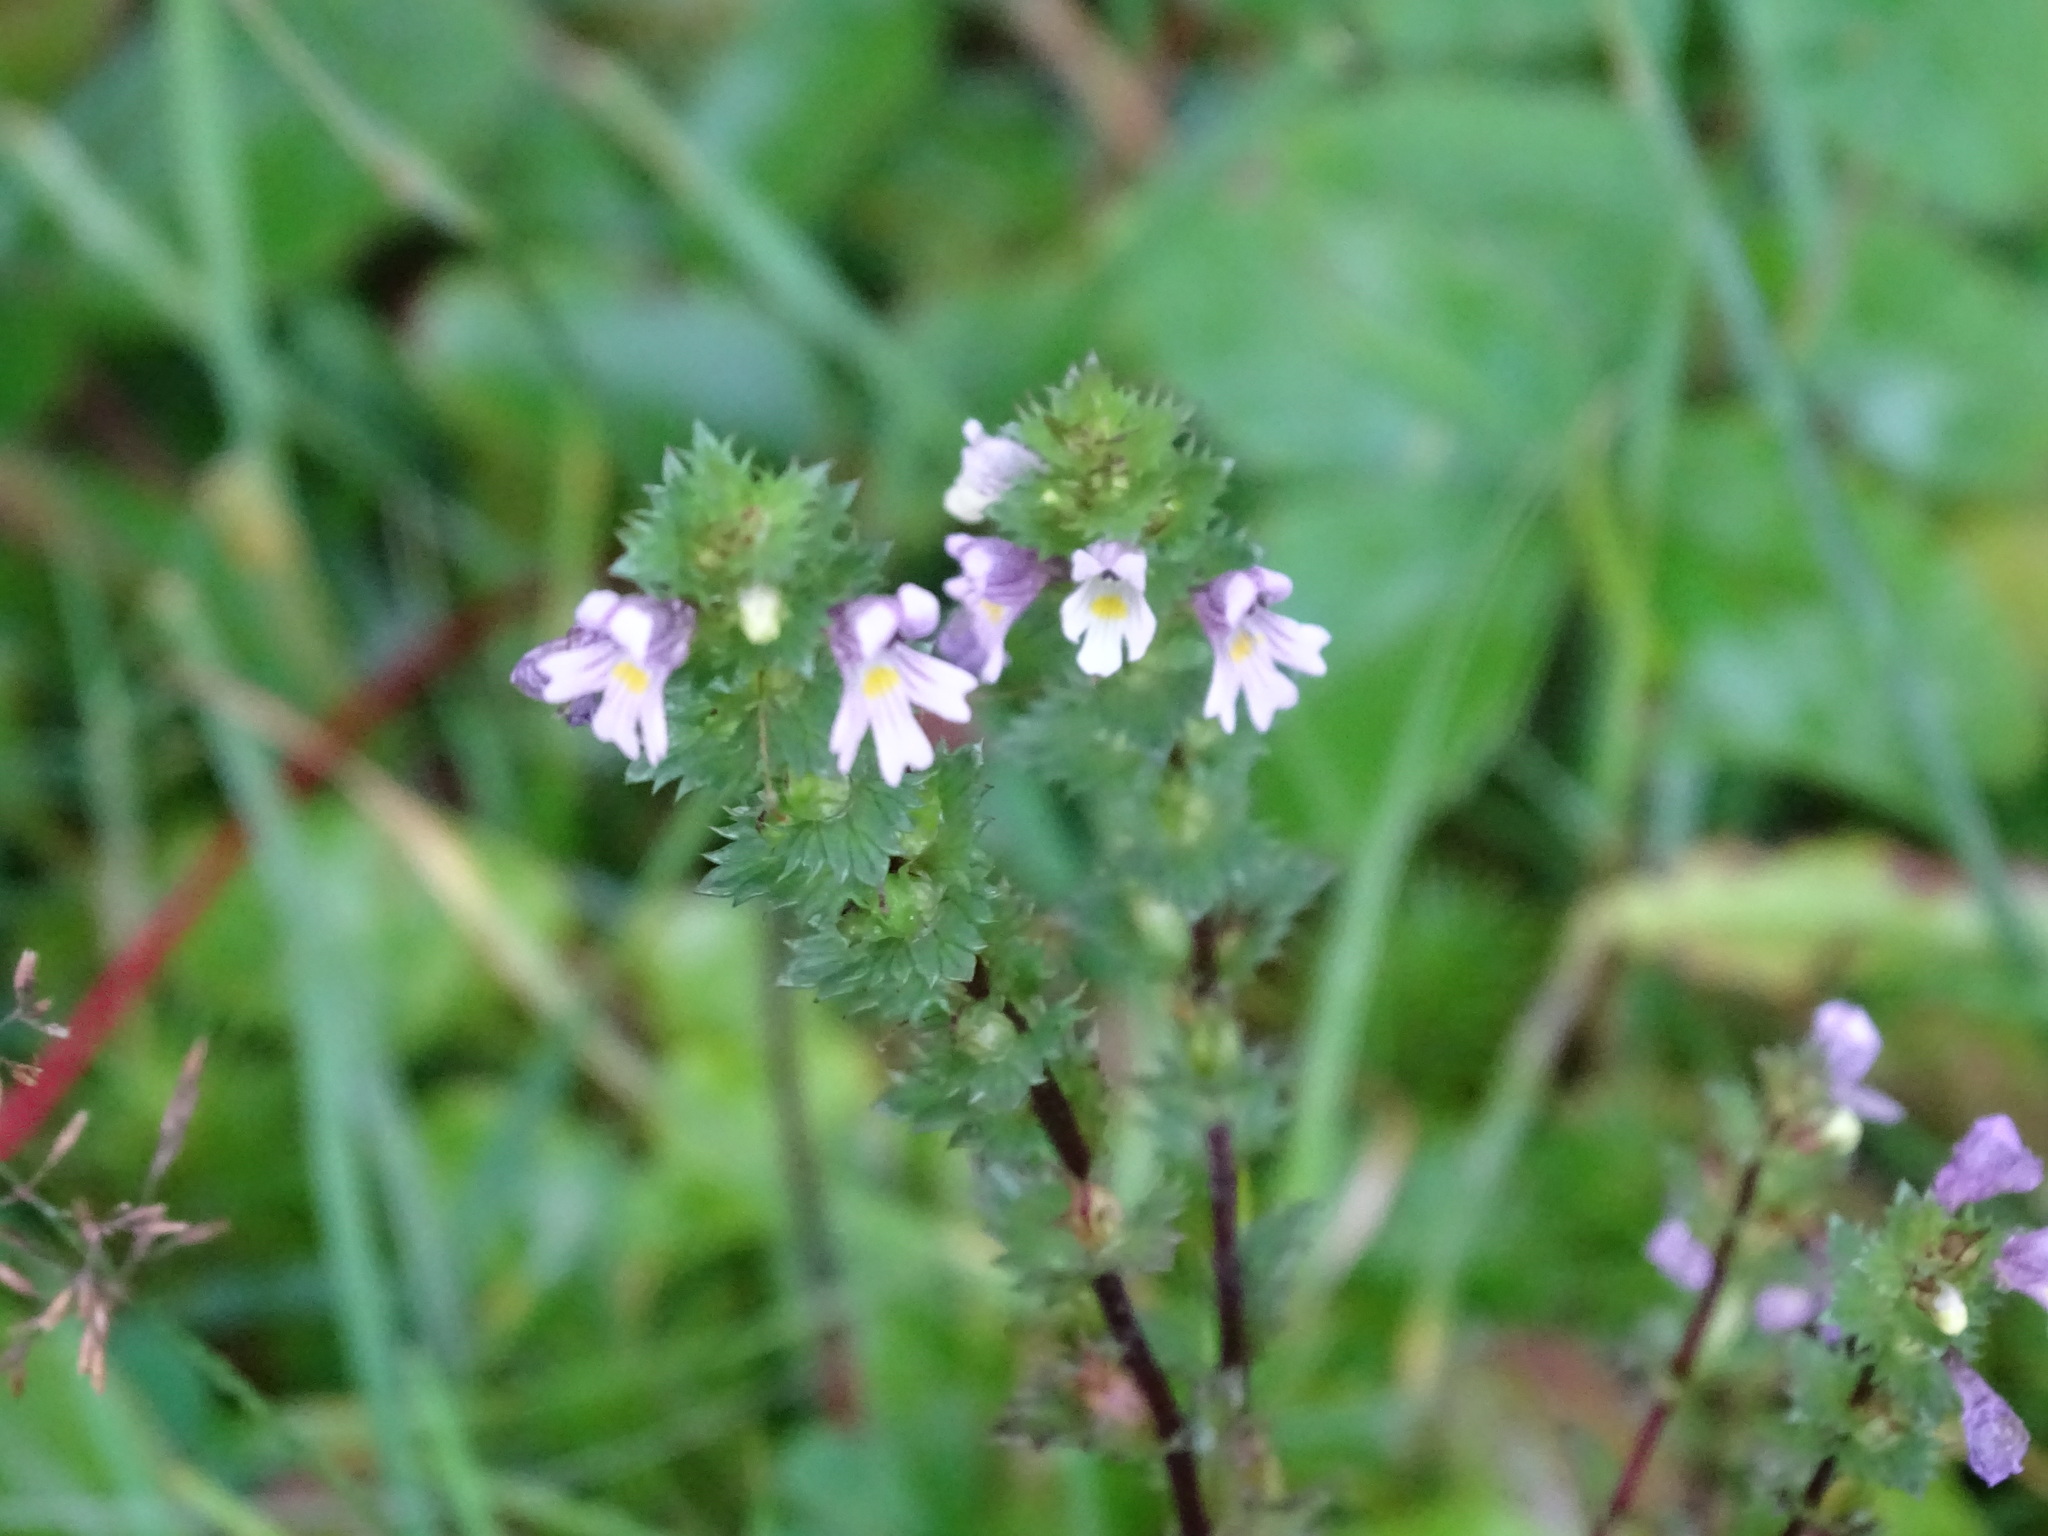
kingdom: Plantae
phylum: Tracheophyta
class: Magnoliopsida
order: Lamiales
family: Orobanchaceae
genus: Euphrasia
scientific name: Euphrasia stricta
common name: Drug eyebright
